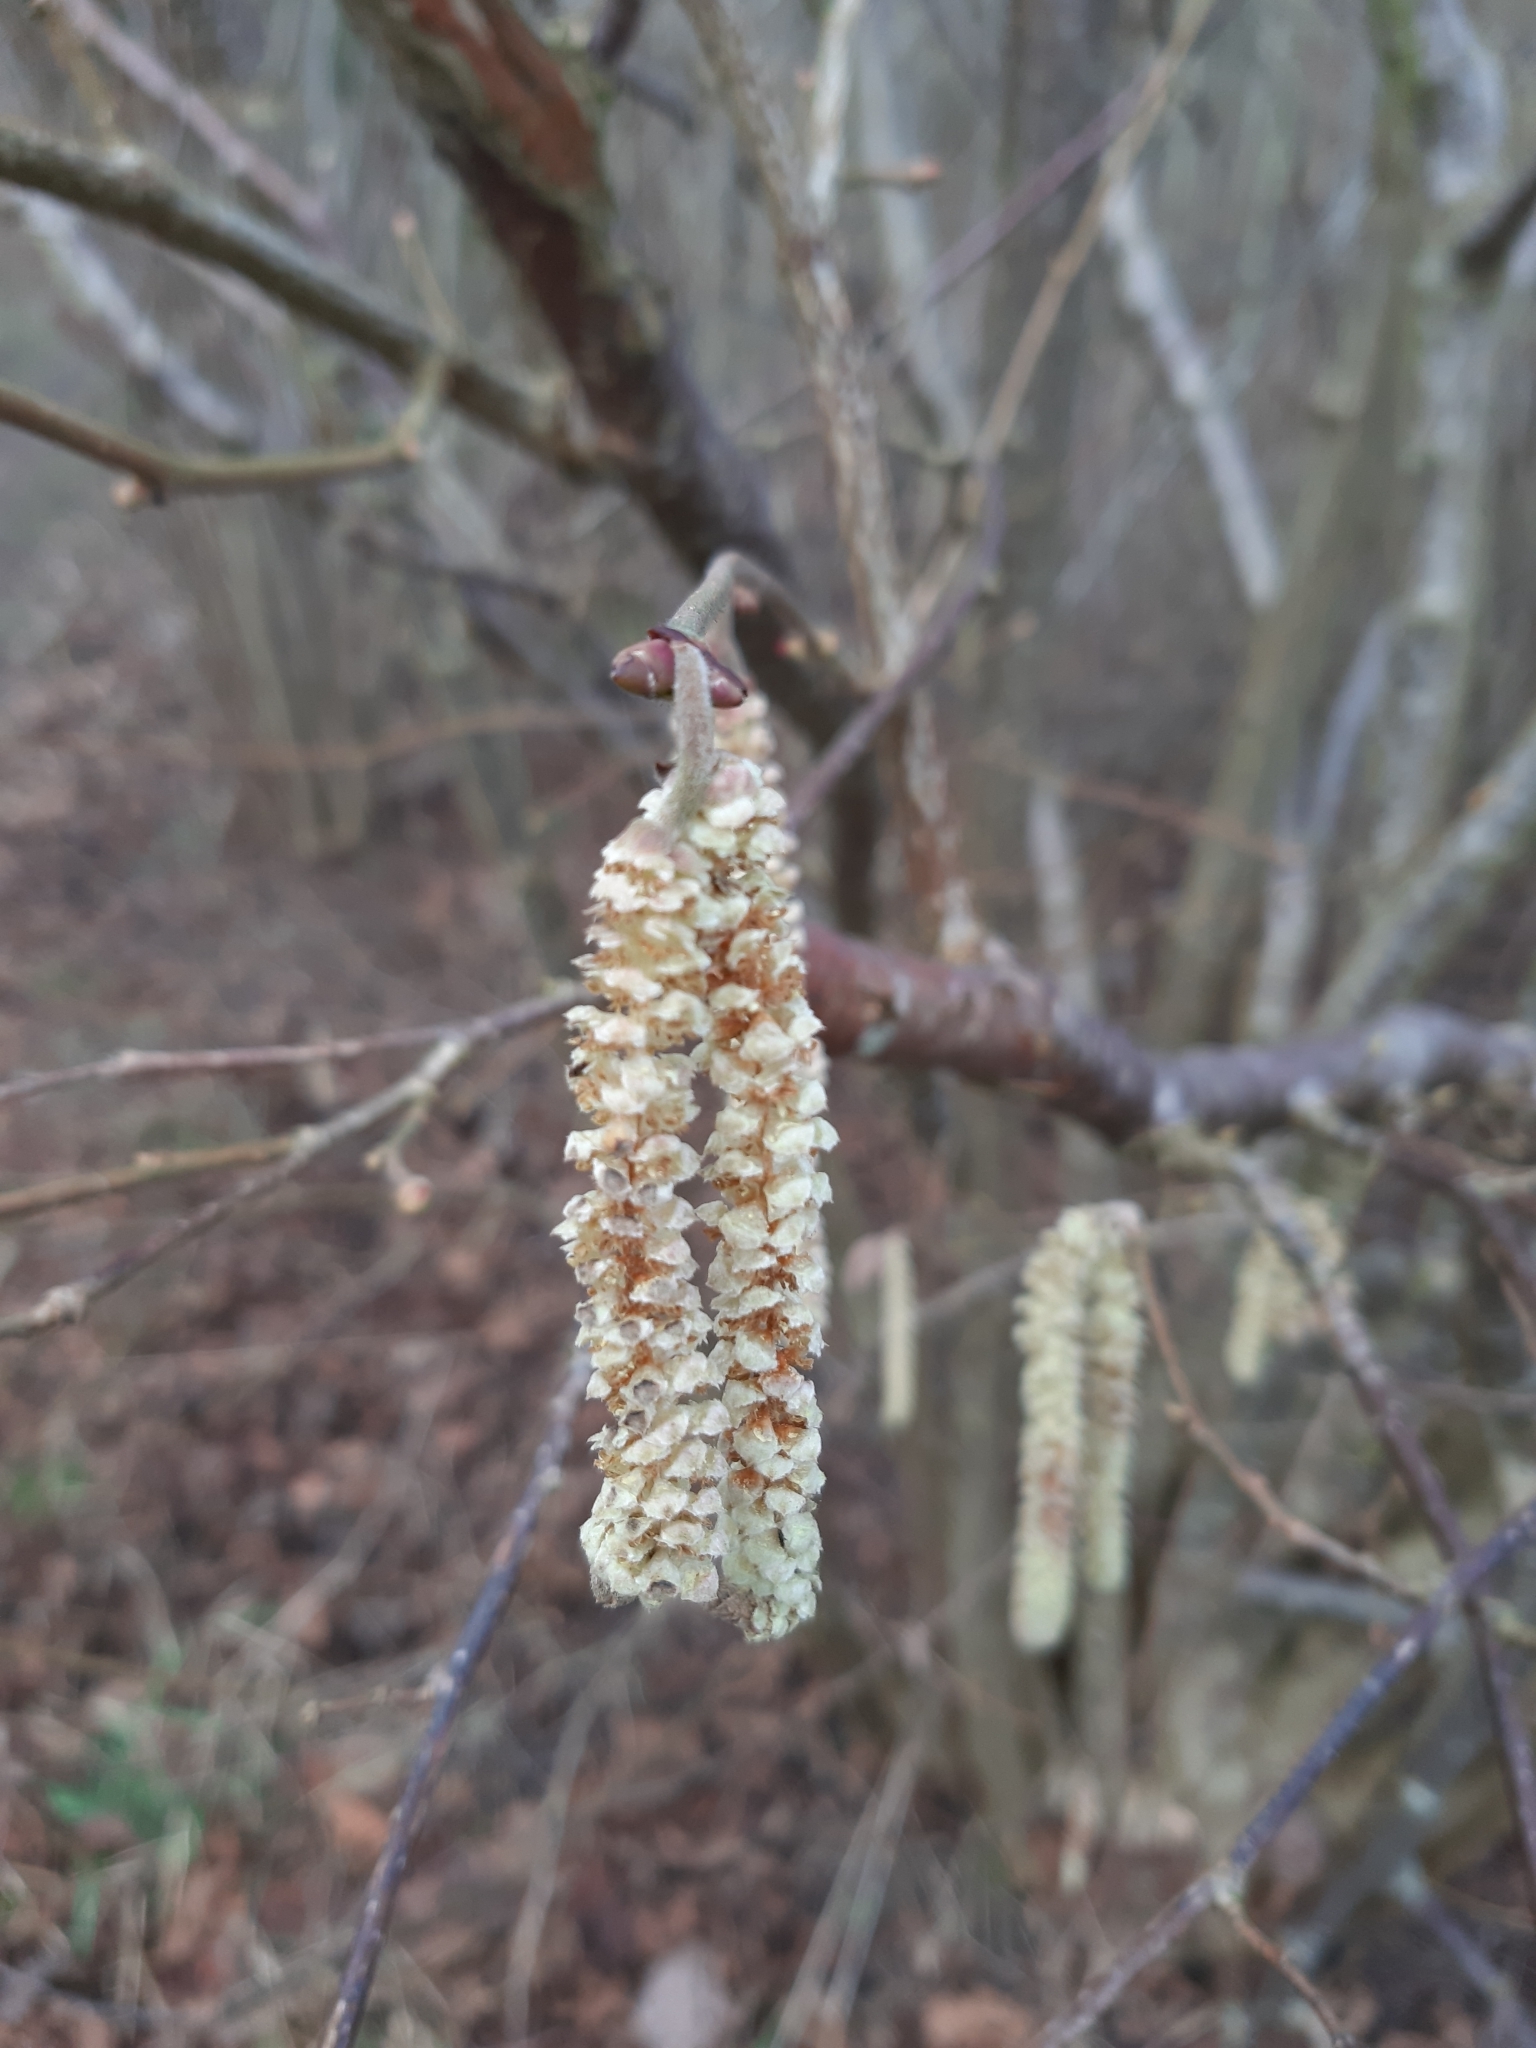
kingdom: Plantae
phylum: Tracheophyta
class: Magnoliopsida
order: Fagales
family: Betulaceae
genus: Corylus
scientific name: Corylus avellana
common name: European hazel
